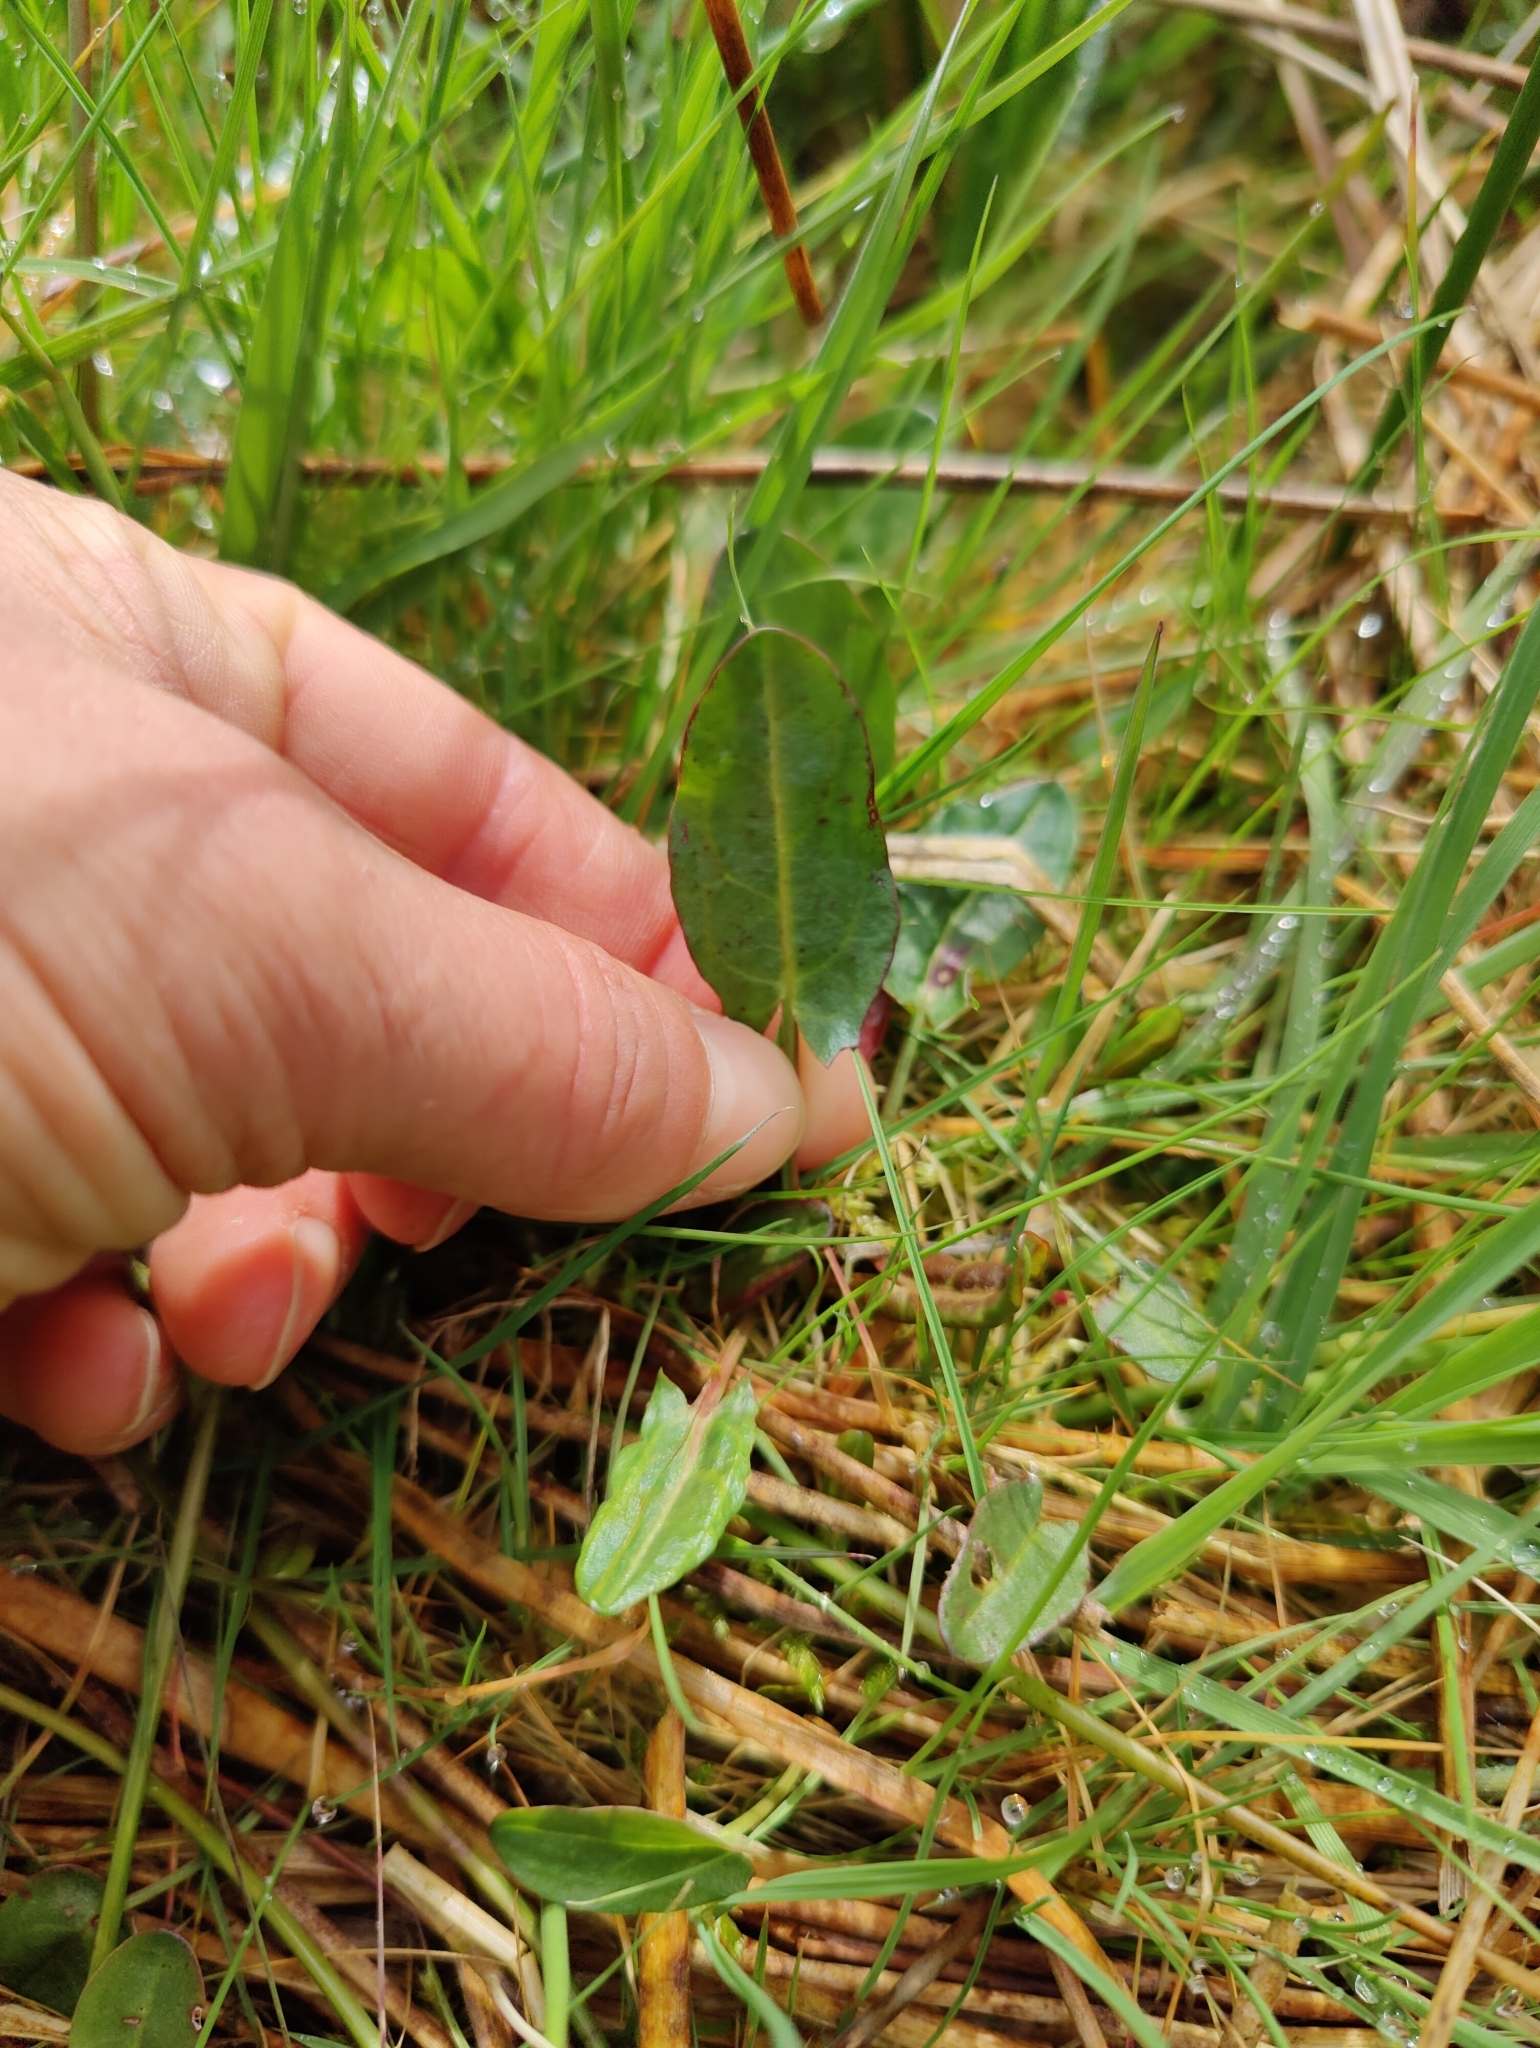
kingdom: Plantae
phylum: Tracheophyta
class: Magnoliopsida
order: Caryophyllales
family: Polygonaceae
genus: Rumex
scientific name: Rumex acetosa
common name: Garden sorrel
